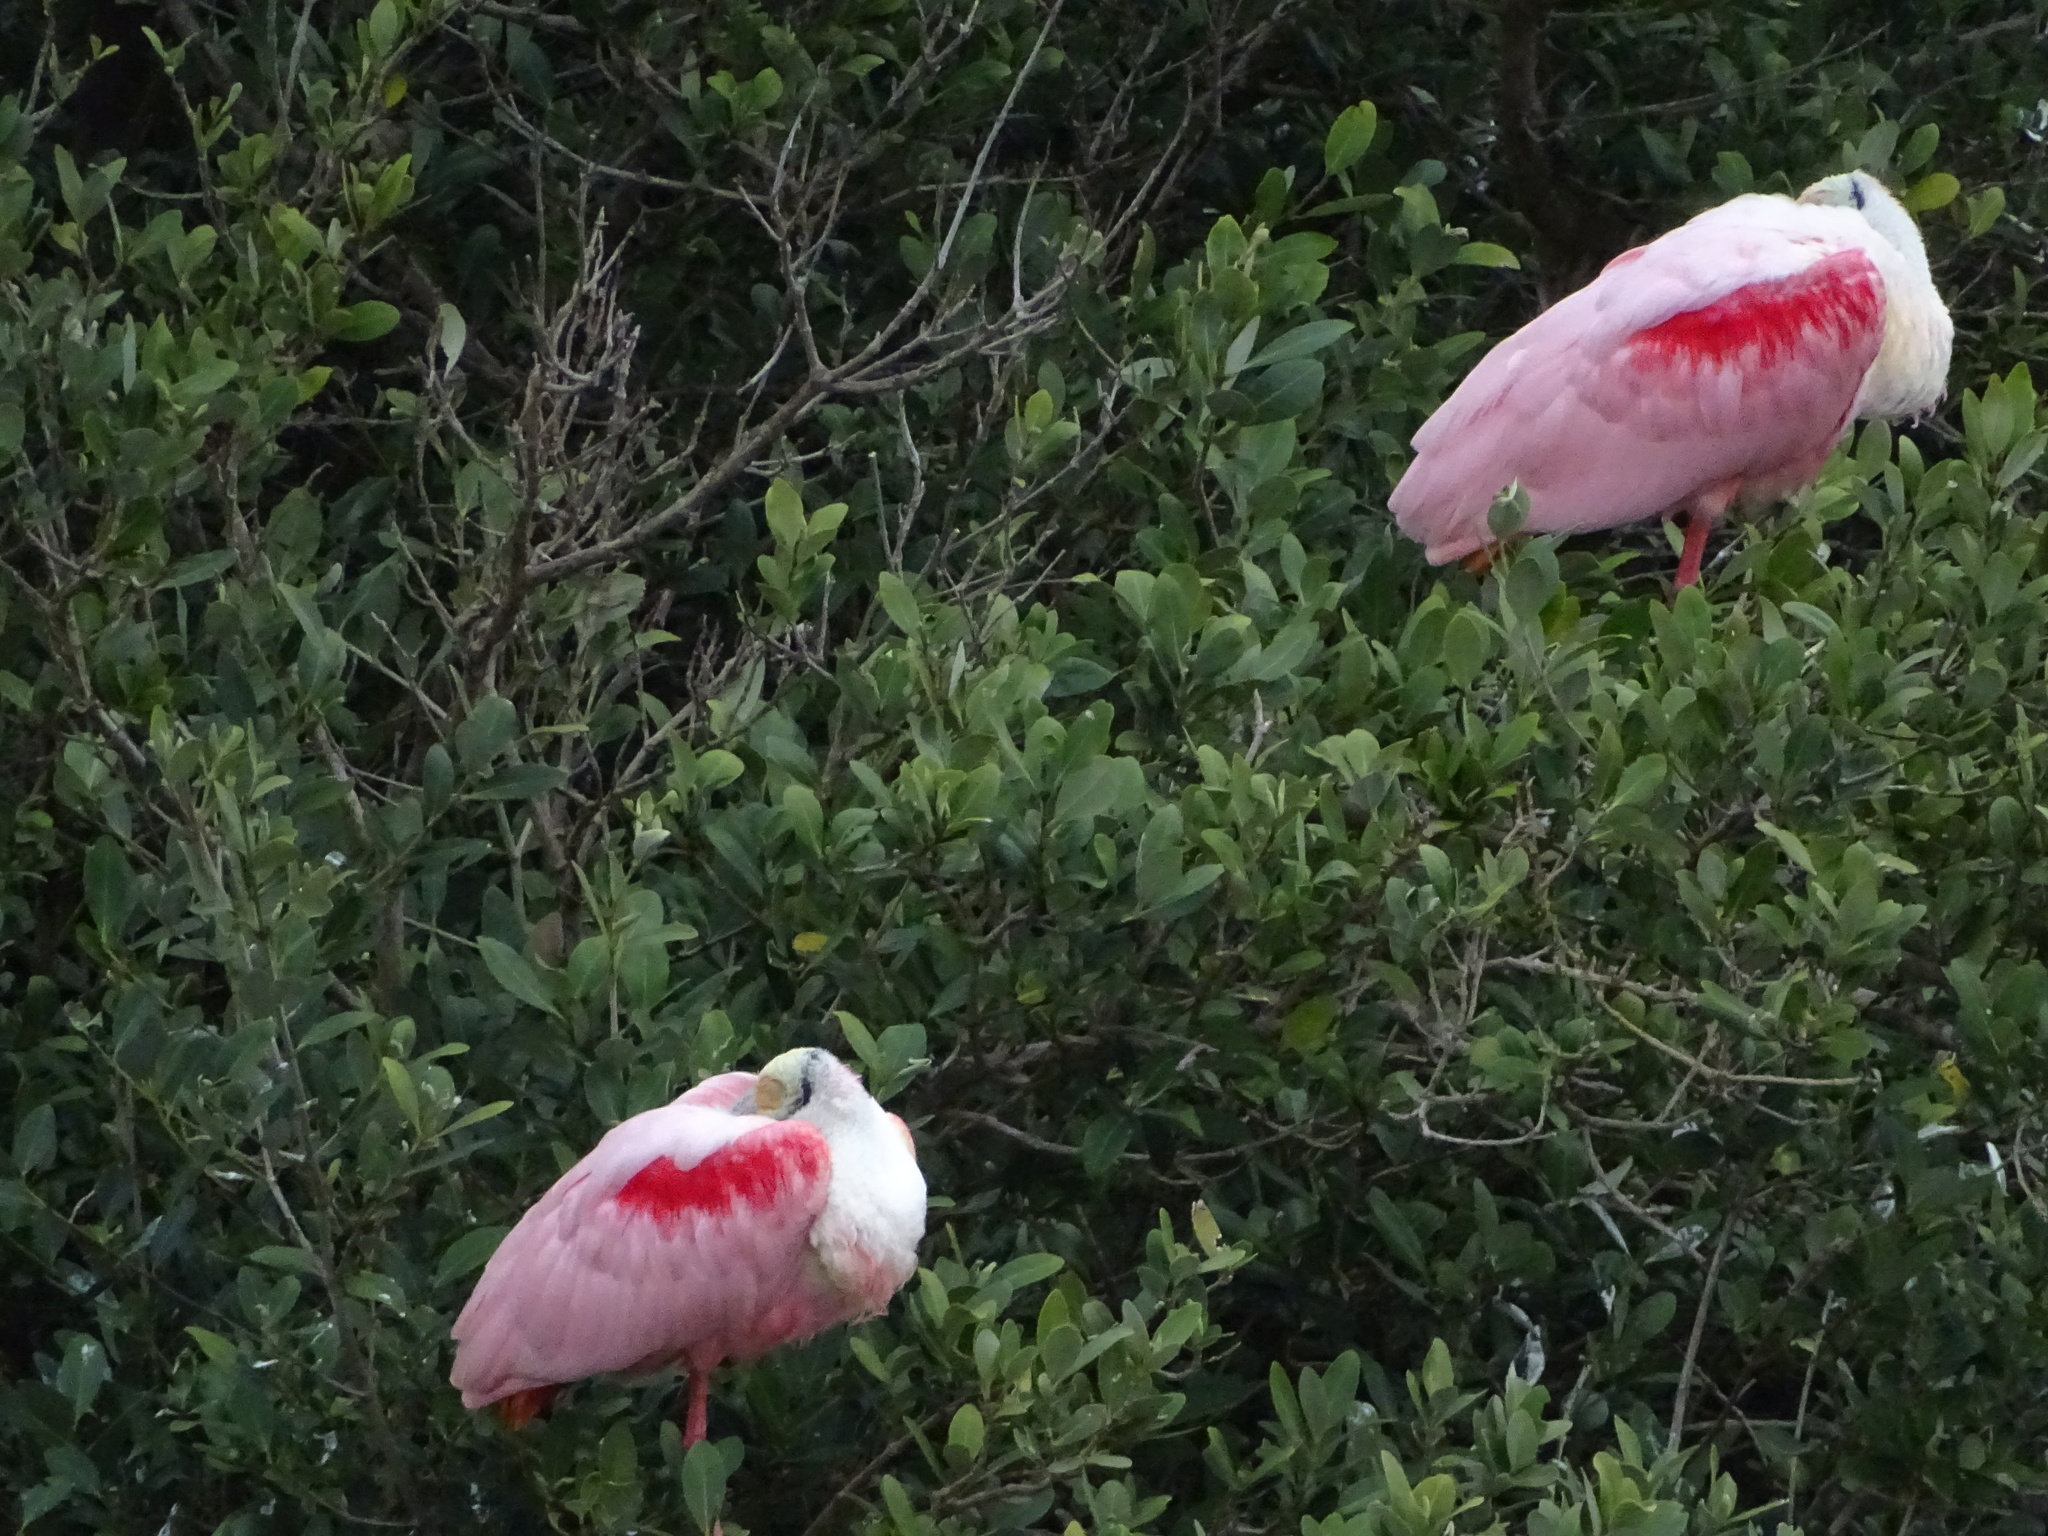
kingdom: Animalia
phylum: Chordata
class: Aves
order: Pelecaniformes
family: Threskiornithidae
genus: Platalea
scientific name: Platalea ajaja
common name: Roseate spoonbill
